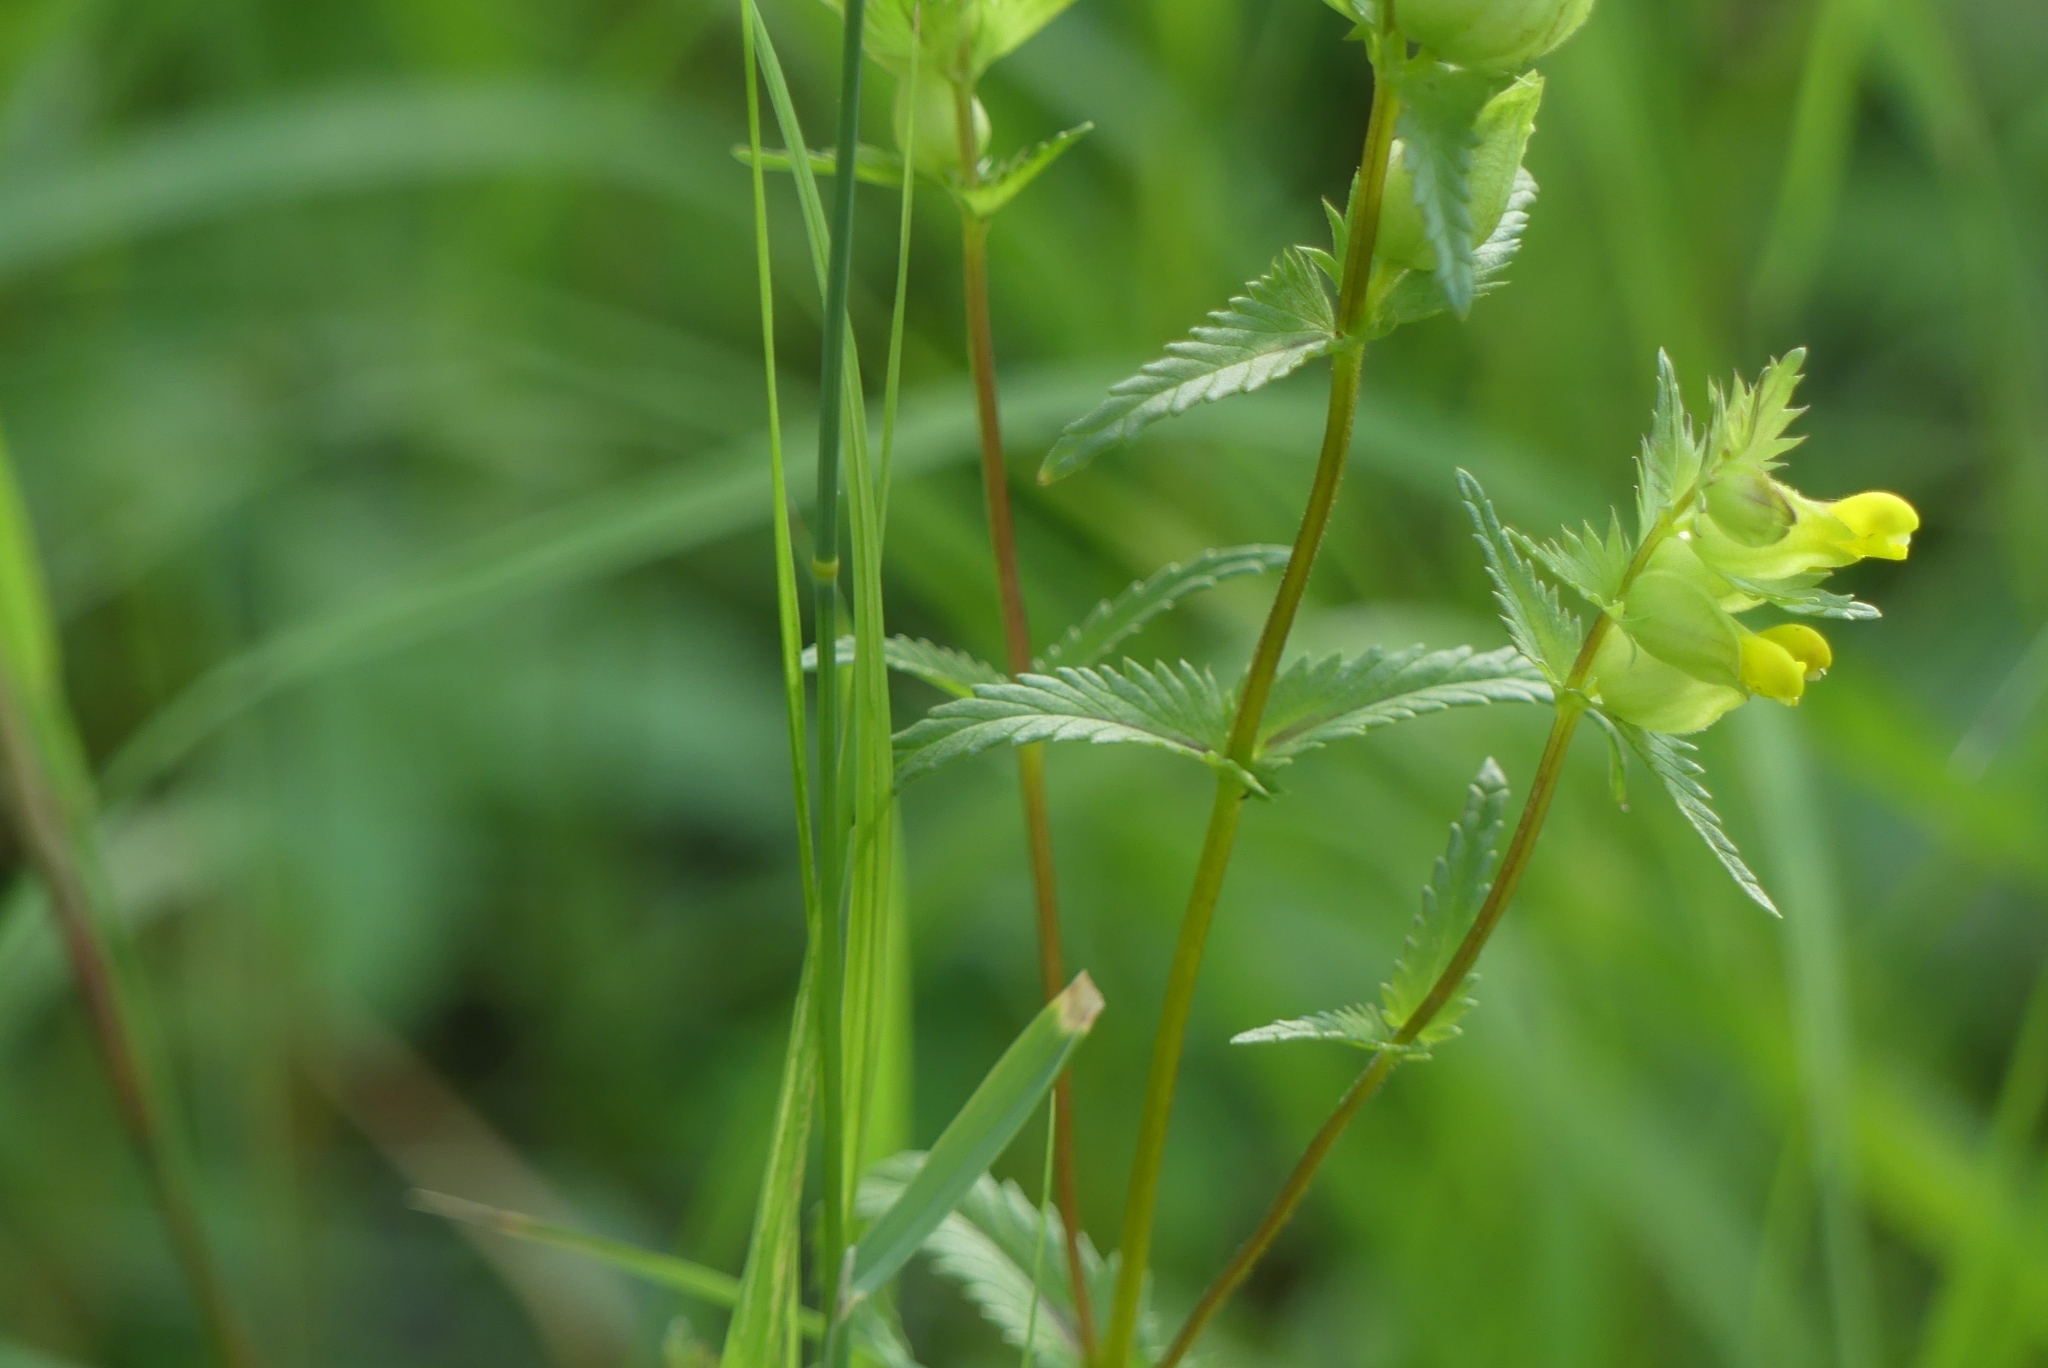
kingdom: Plantae
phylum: Tracheophyta
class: Magnoliopsida
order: Lamiales
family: Orobanchaceae
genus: Rhinanthus
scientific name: Rhinanthus minor
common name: Yellow-rattle
